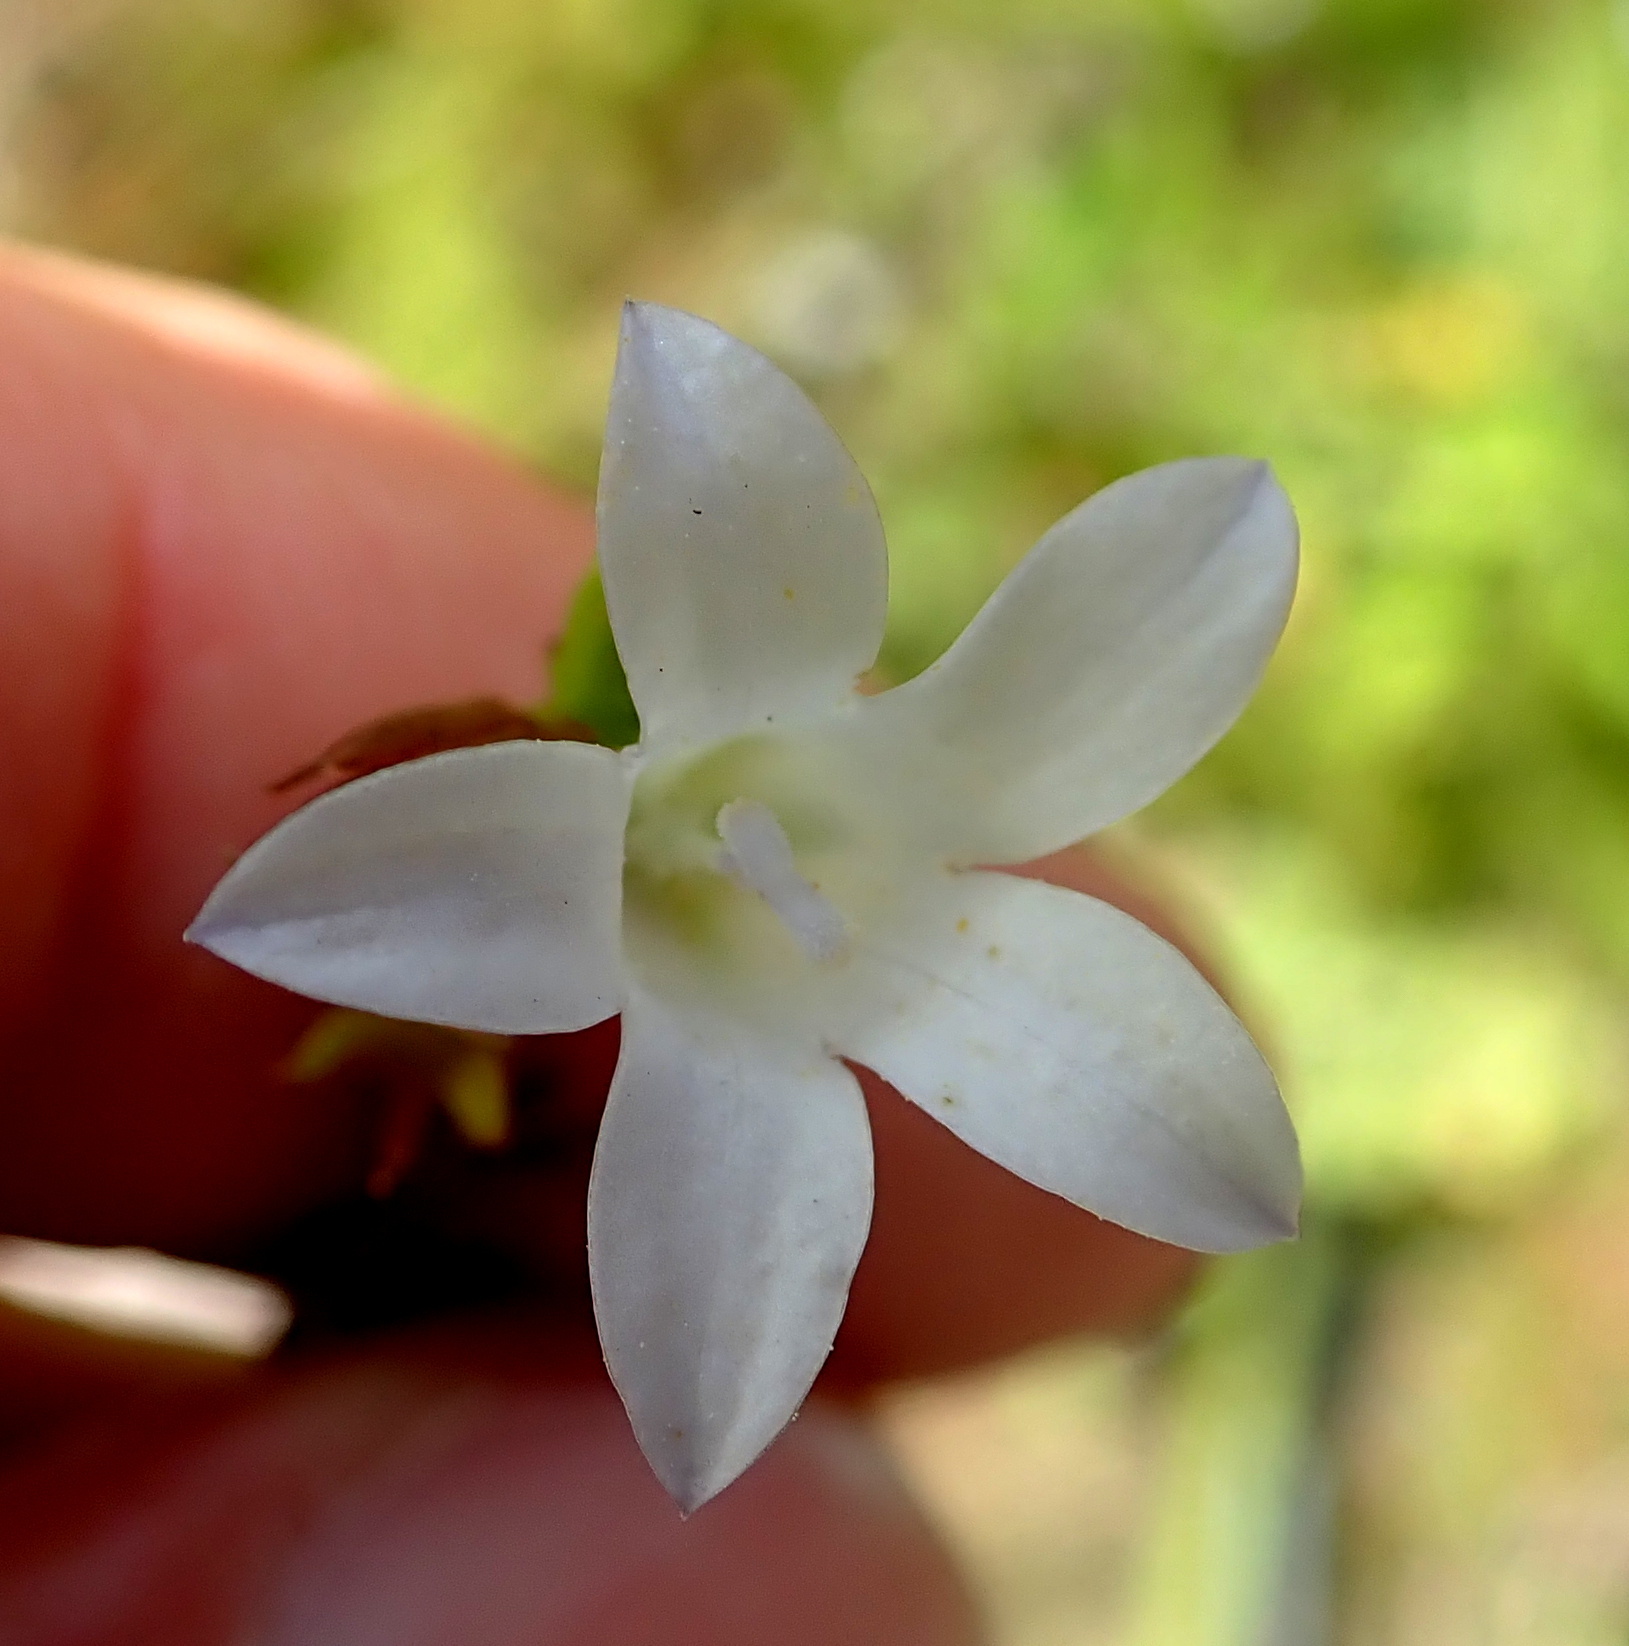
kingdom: Plantae
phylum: Tracheophyta
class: Magnoliopsida
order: Asterales
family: Campanulaceae
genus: Prismatocarpus
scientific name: Prismatocarpus schlechteri
